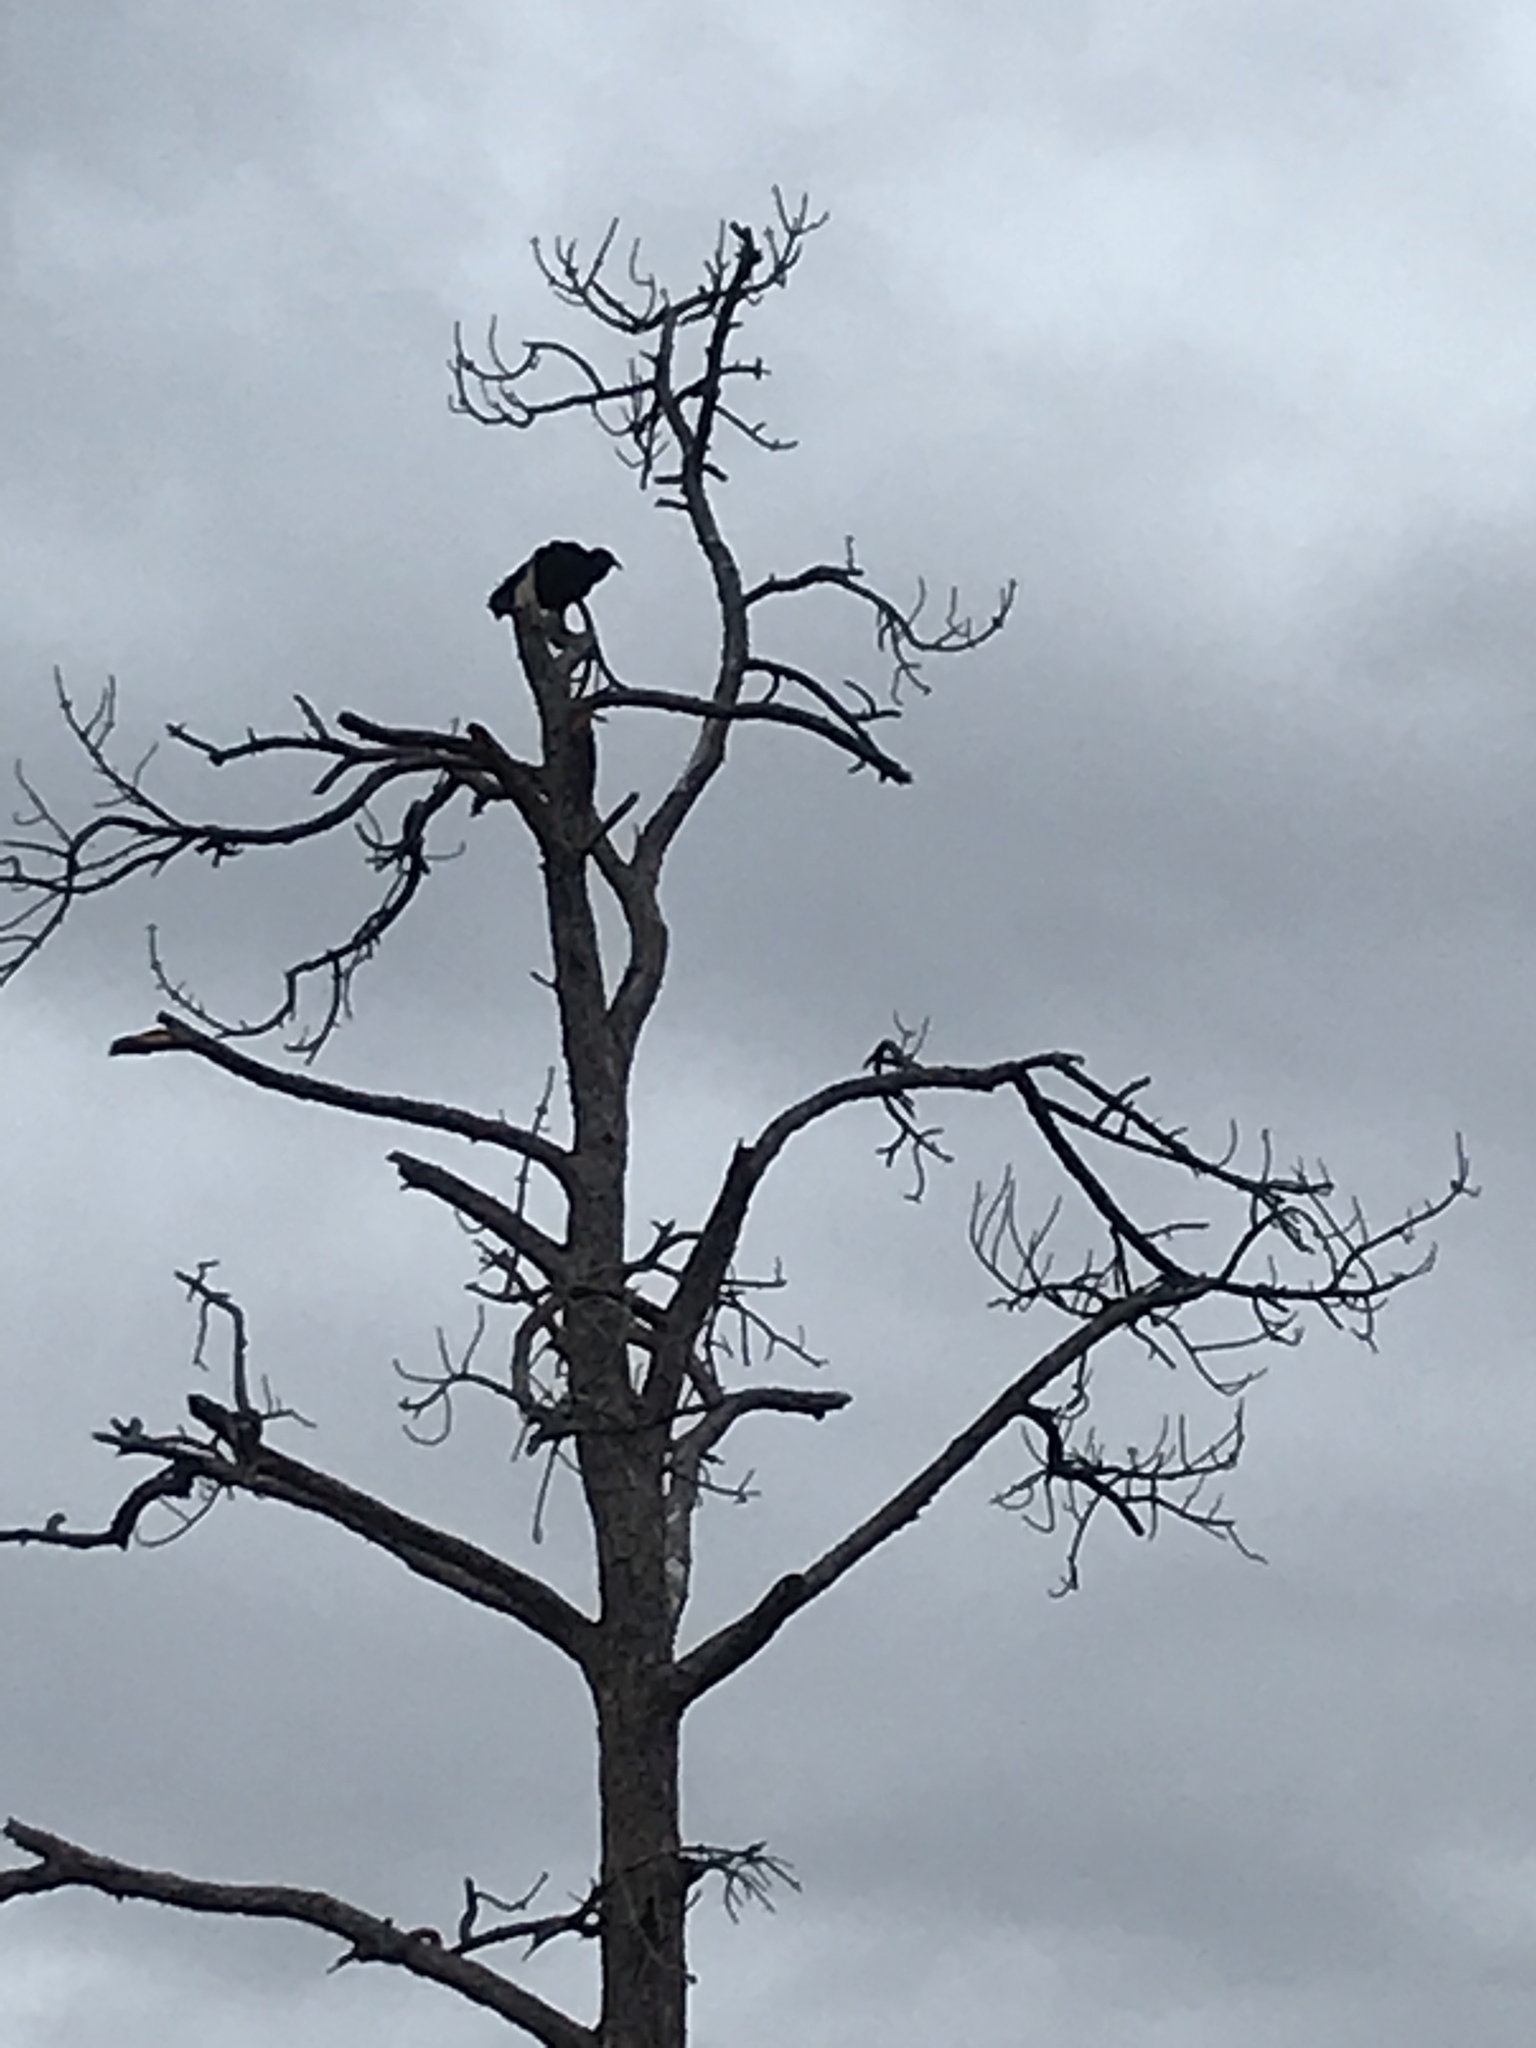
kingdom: Animalia
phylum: Chordata
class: Aves
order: Accipitriformes
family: Cathartidae
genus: Coragyps
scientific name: Coragyps atratus
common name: Black vulture
